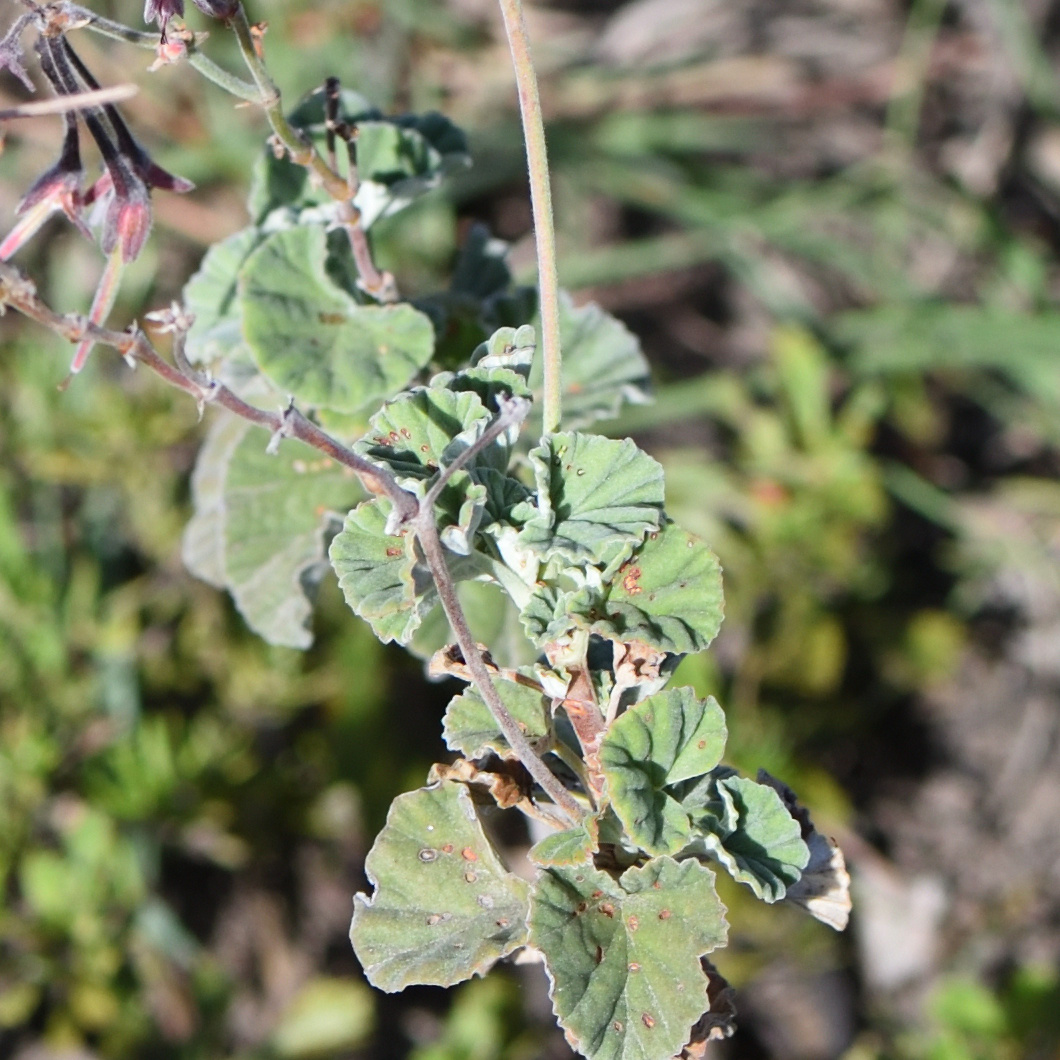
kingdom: Plantae
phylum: Tracheophyta
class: Magnoliopsida
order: Geraniales
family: Geraniaceae
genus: Pelargonium
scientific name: Pelargonium reniforme
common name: Kidney-leaf pelargonium
